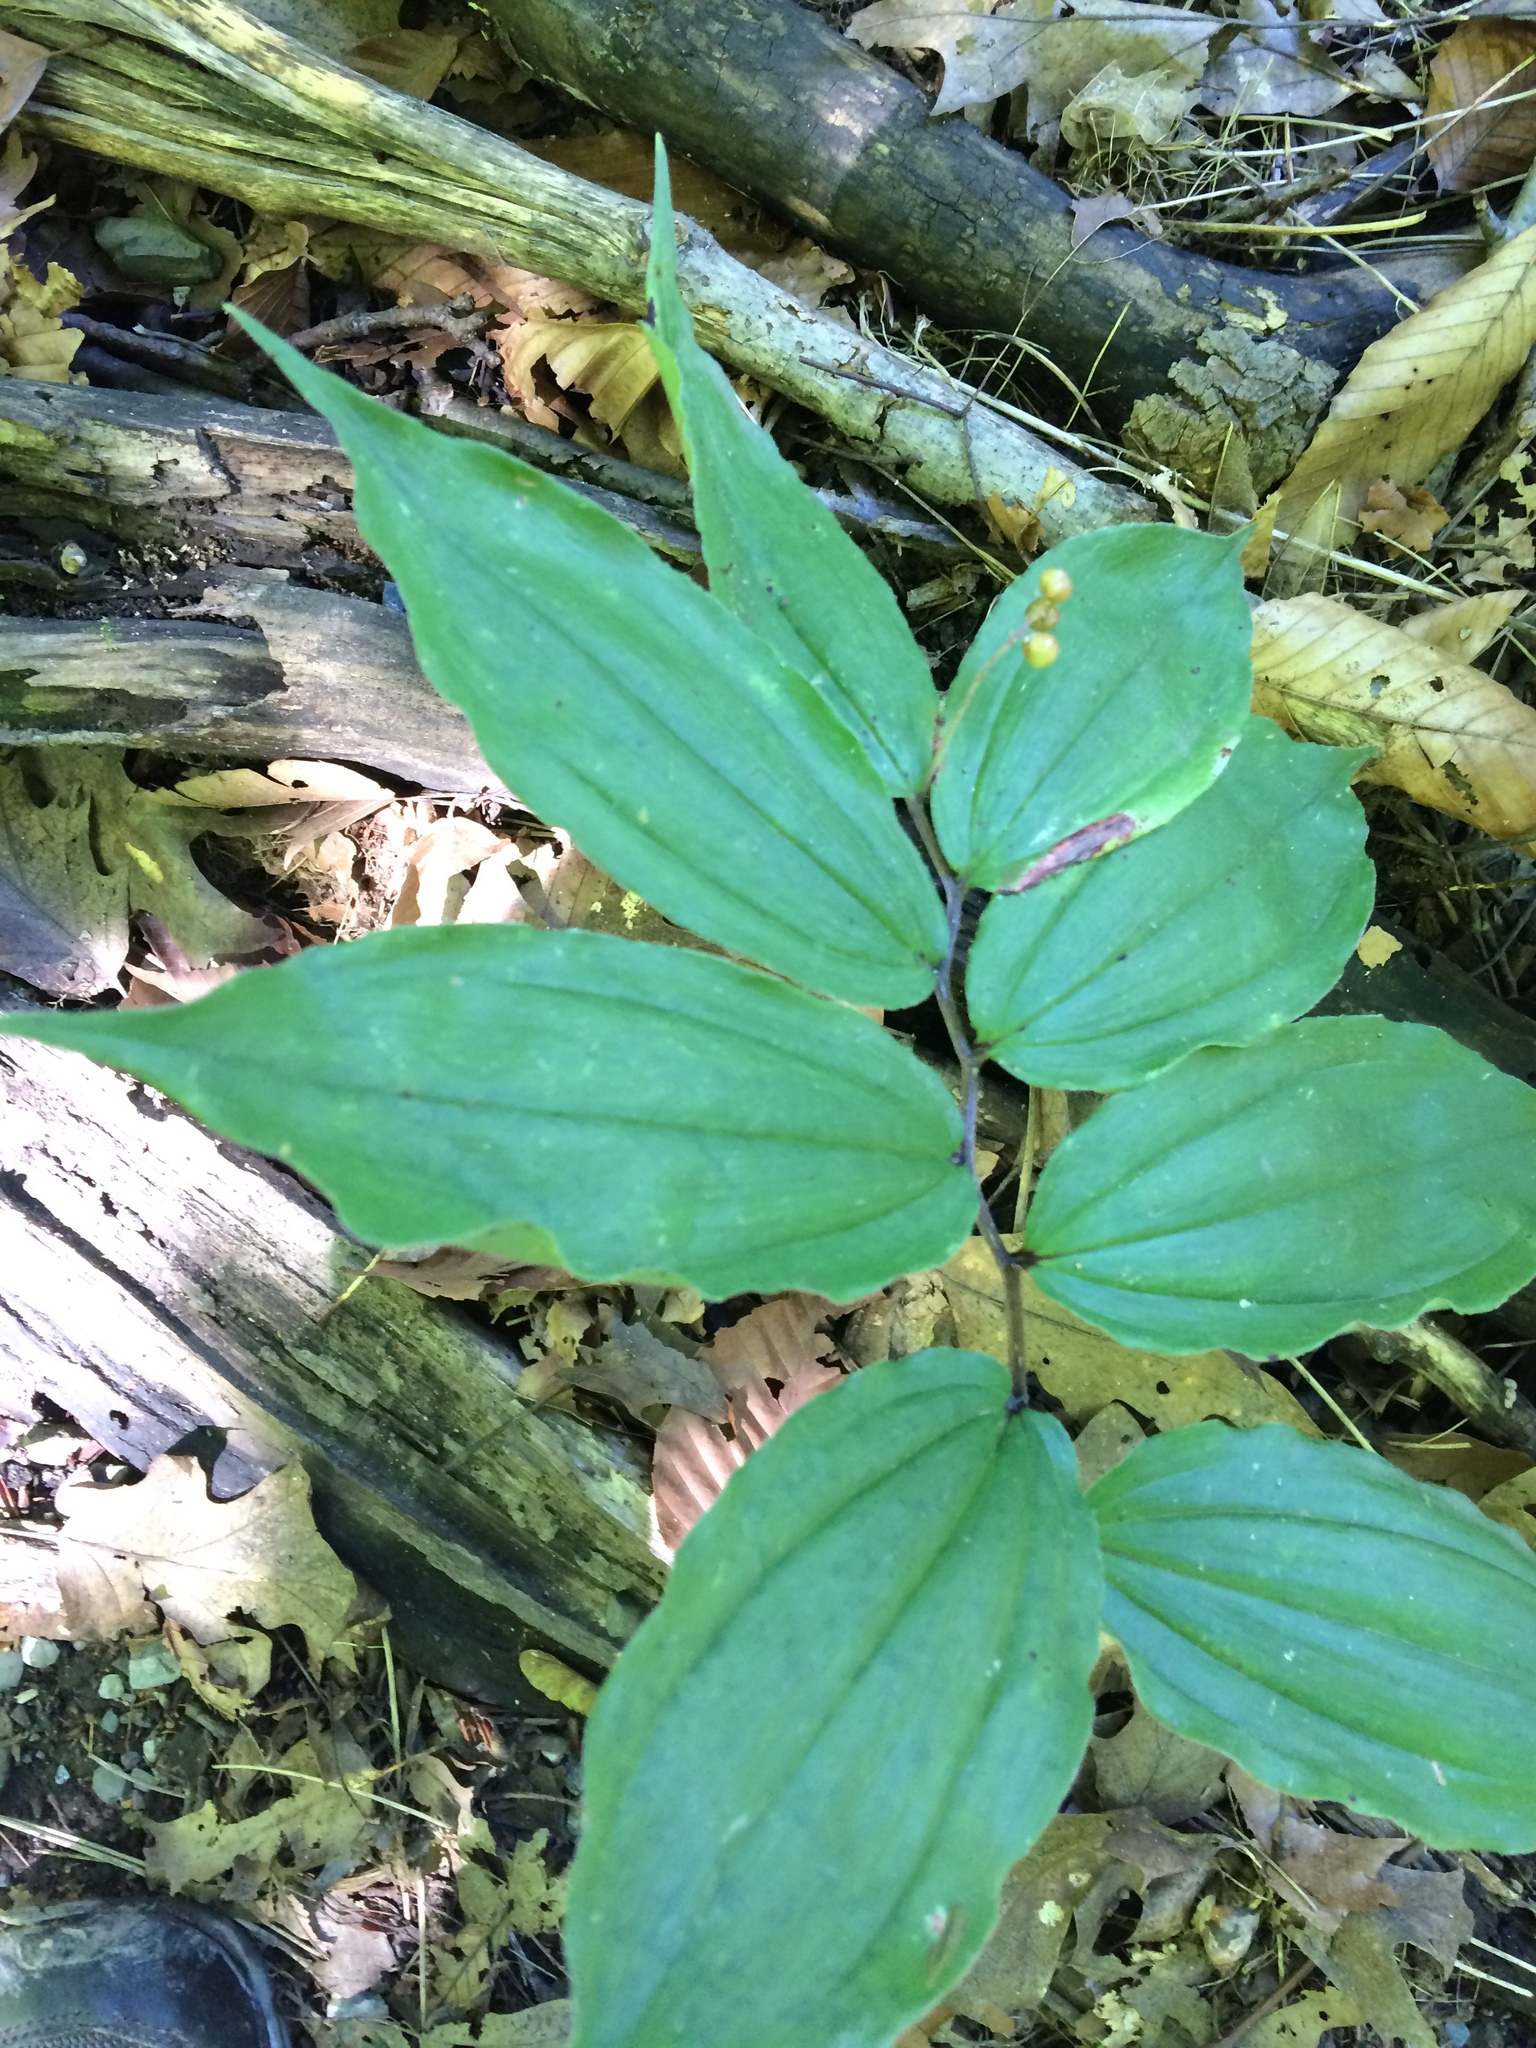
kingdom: Plantae
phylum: Tracheophyta
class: Liliopsida
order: Asparagales
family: Asparagaceae
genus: Maianthemum
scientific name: Maianthemum racemosum
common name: False spikenard
